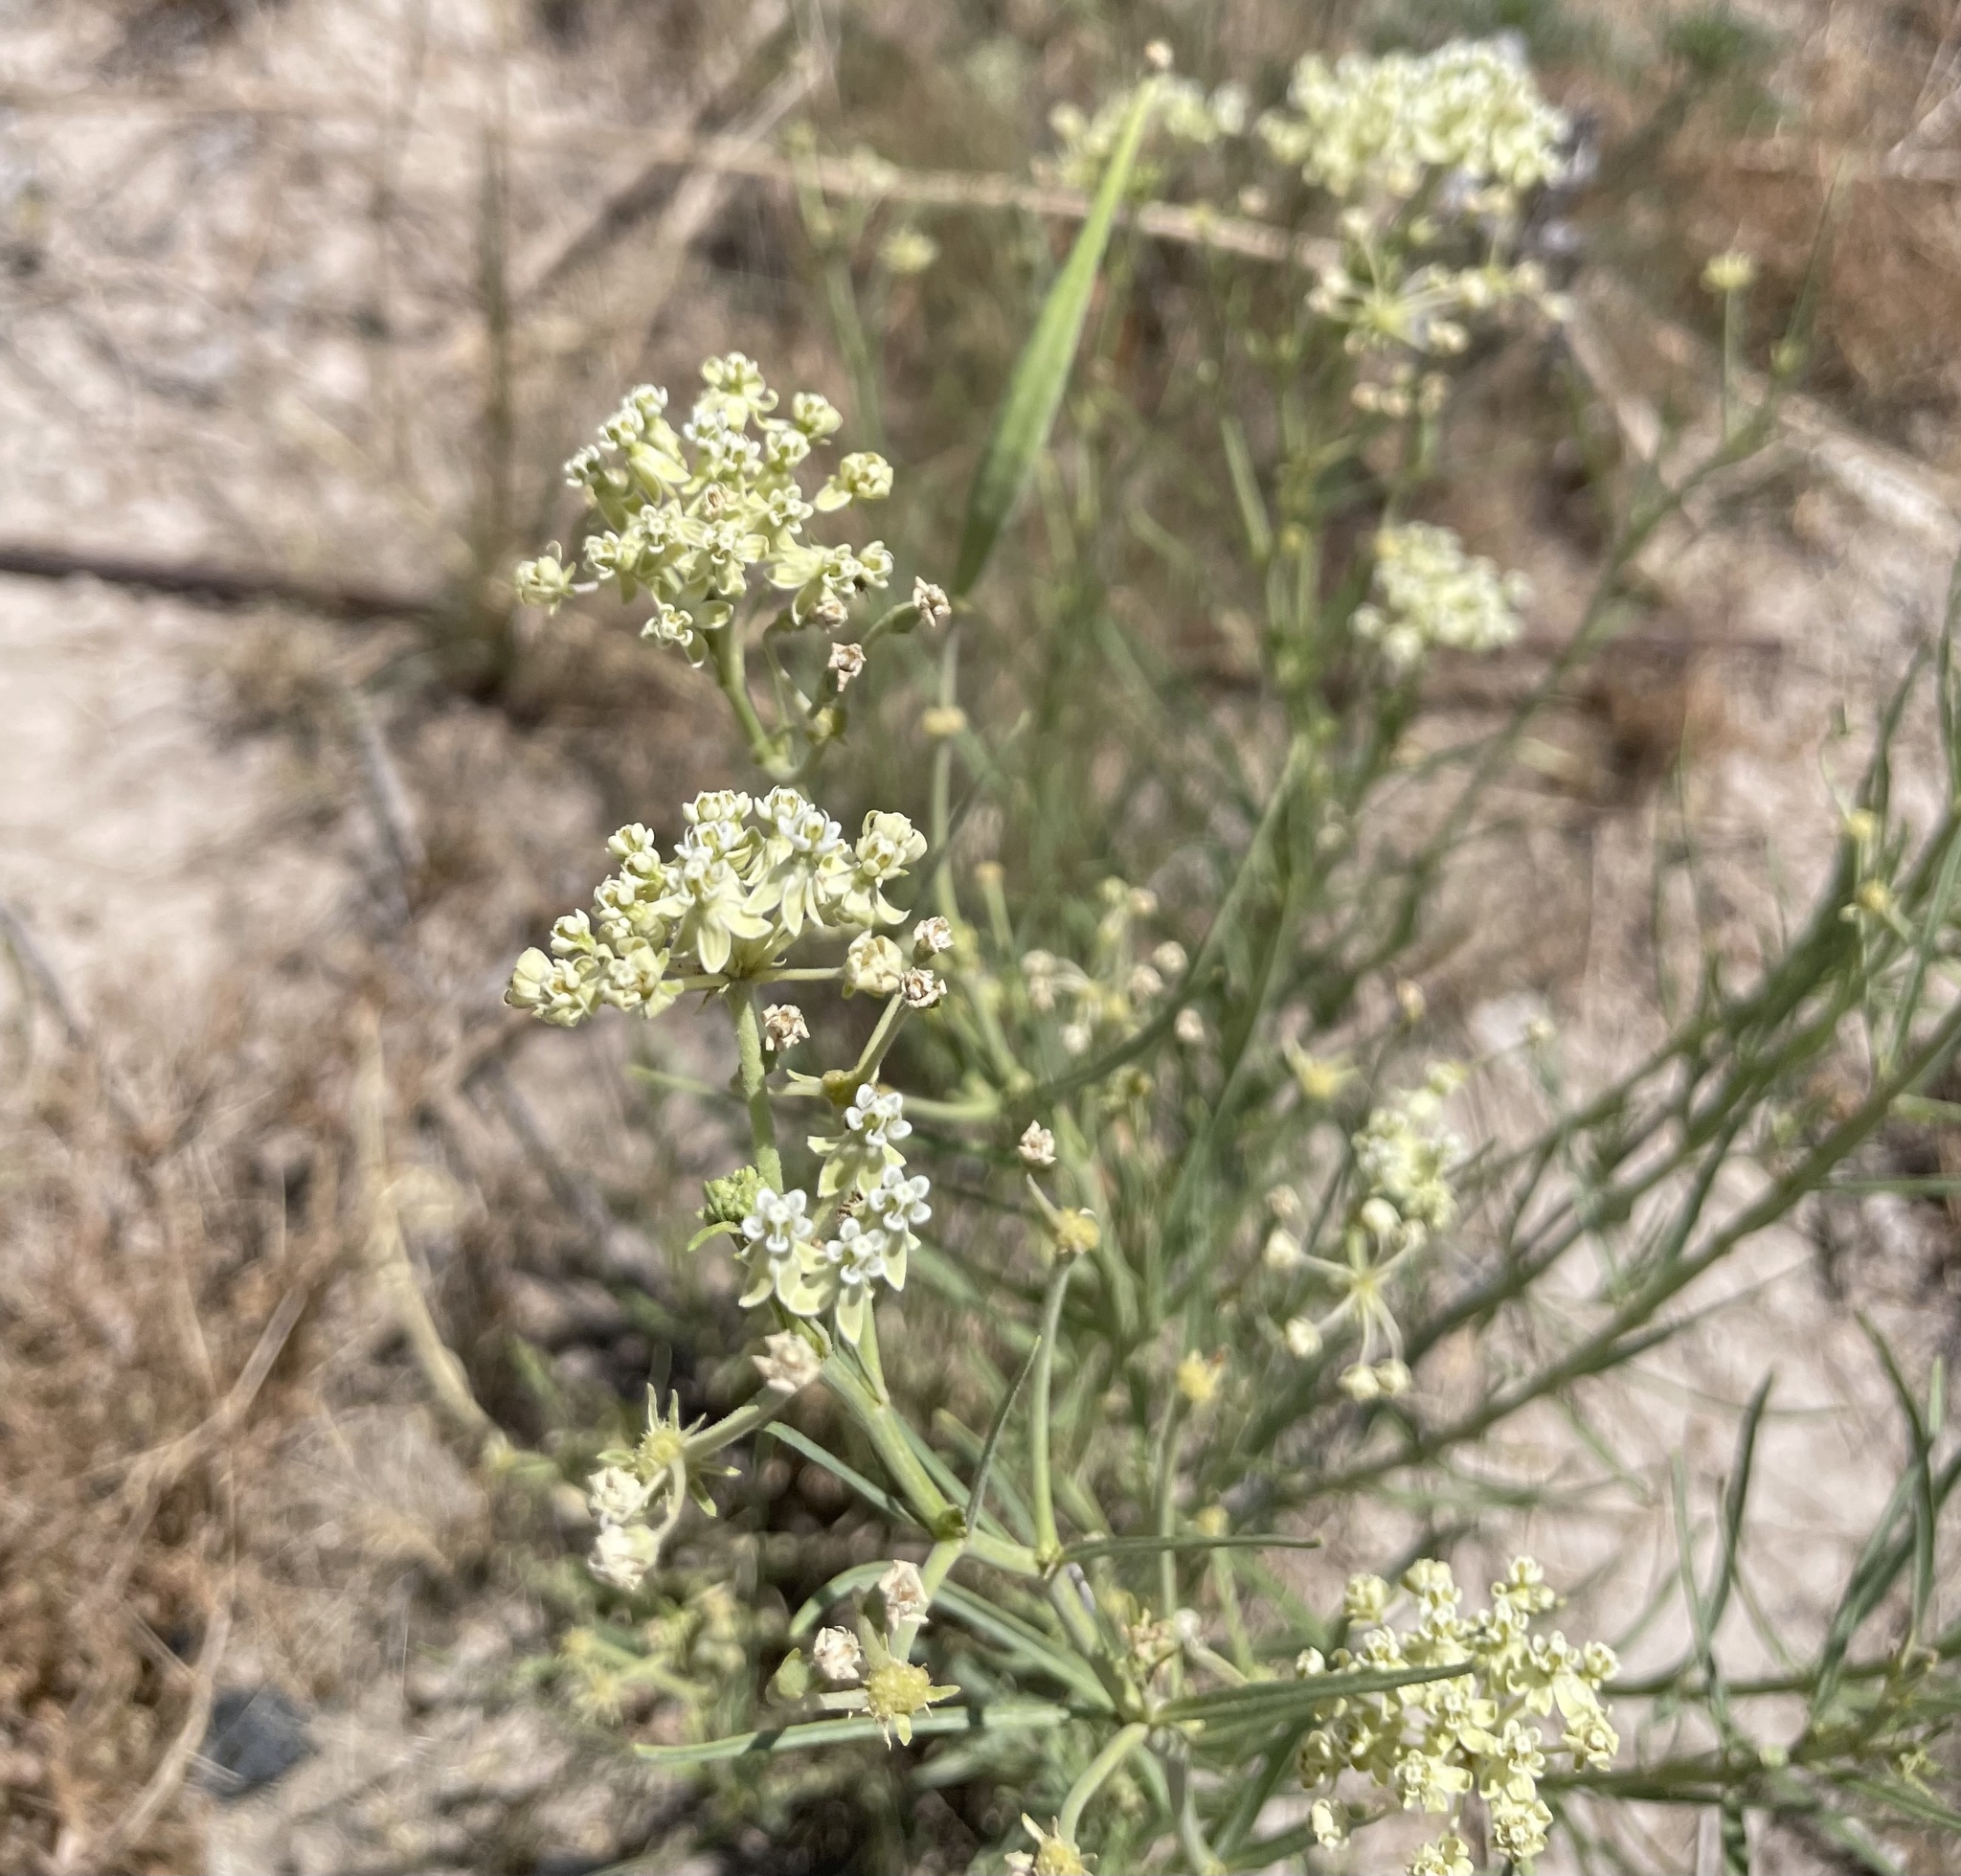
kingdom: Plantae
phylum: Tracheophyta
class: Magnoliopsida
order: Gentianales
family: Apocynaceae
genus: Asclepias
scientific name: Asclepias subverticillata
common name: Horsetail milkweed
